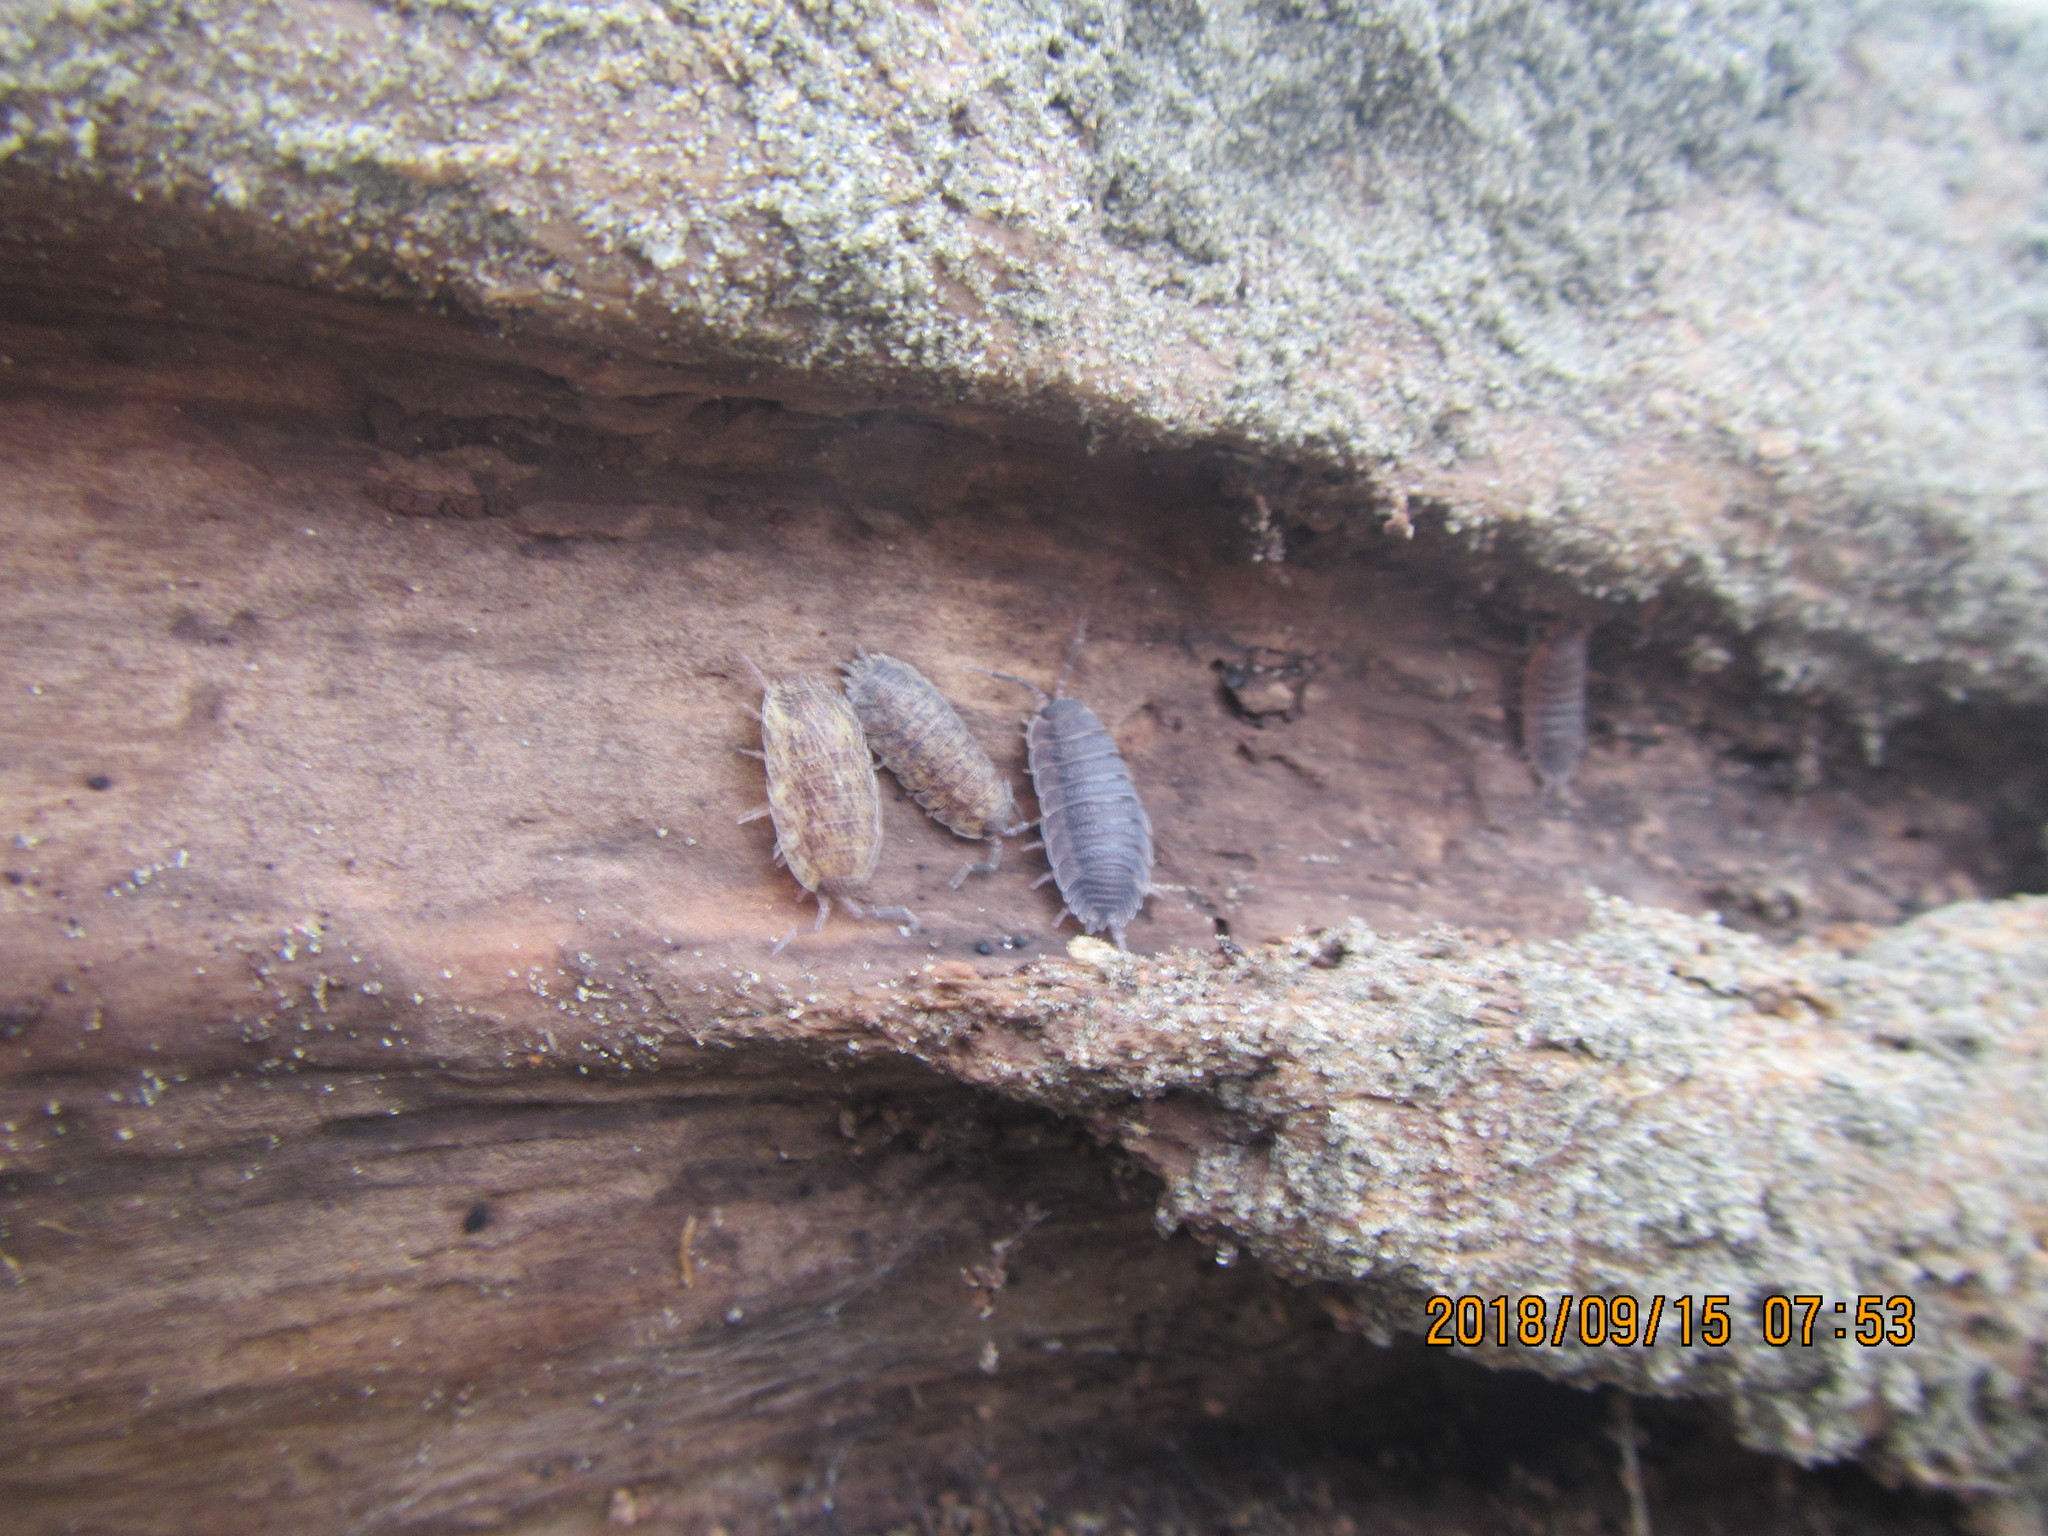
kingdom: Animalia
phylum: Arthropoda
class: Malacostraca
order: Isopoda
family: Porcellionidae
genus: Porcellio
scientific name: Porcellio scaber
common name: Common rough woodlouse
